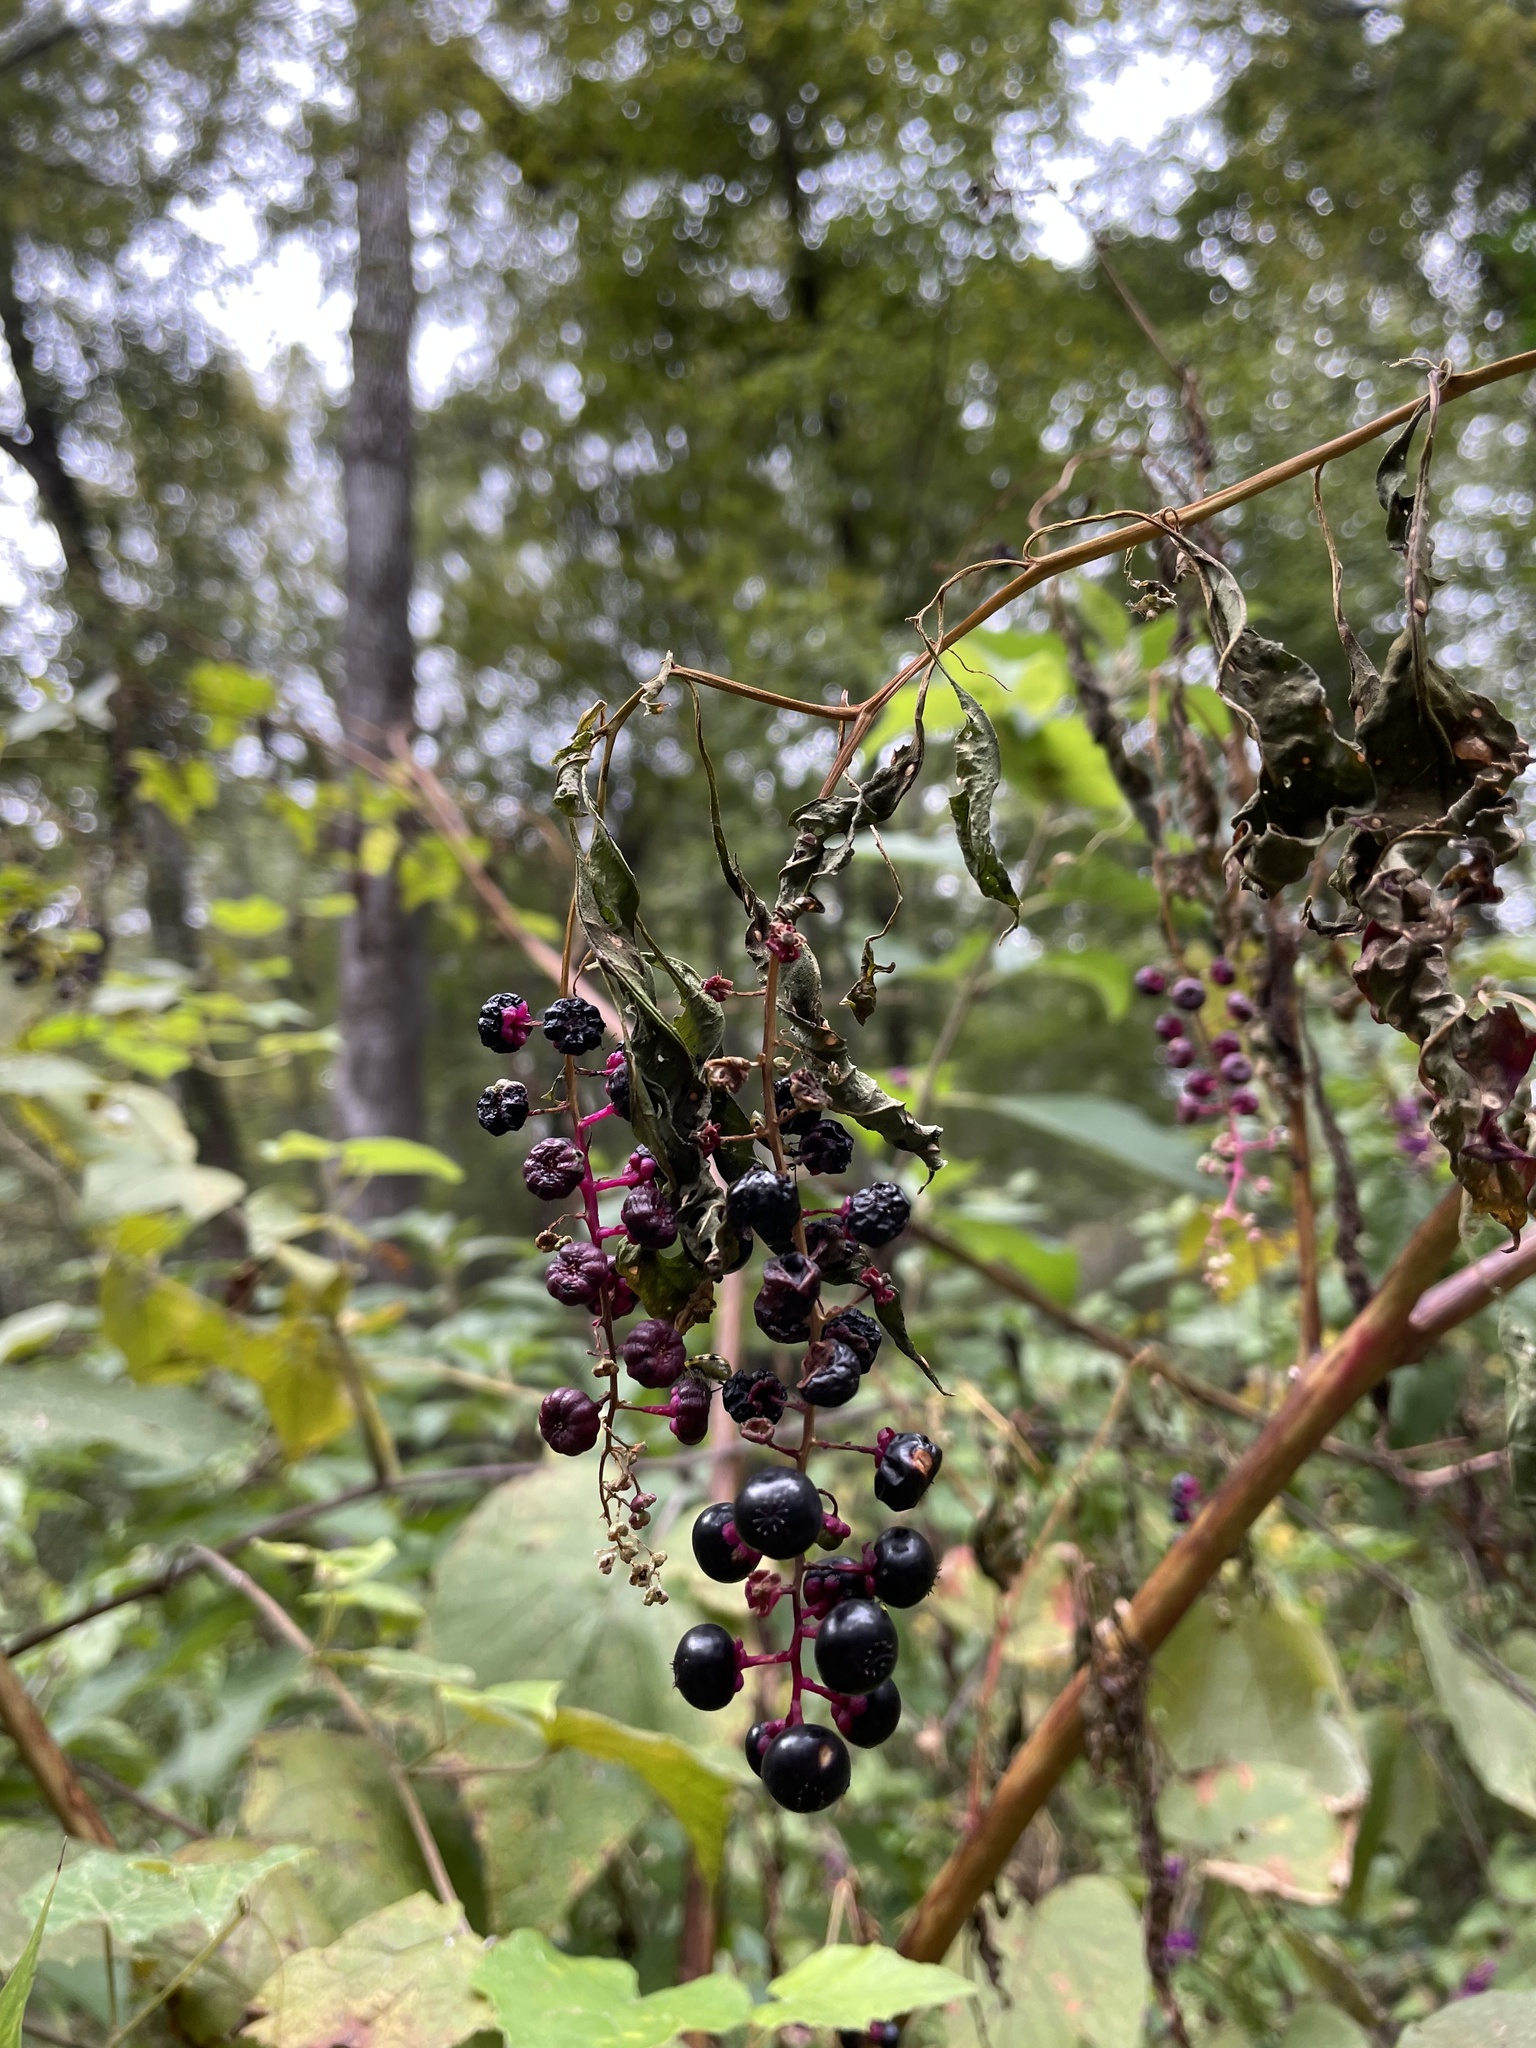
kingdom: Plantae
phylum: Tracheophyta
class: Magnoliopsida
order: Caryophyllales
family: Phytolaccaceae
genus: Phytolacca
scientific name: Phytolacca americana
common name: American pokeweed
